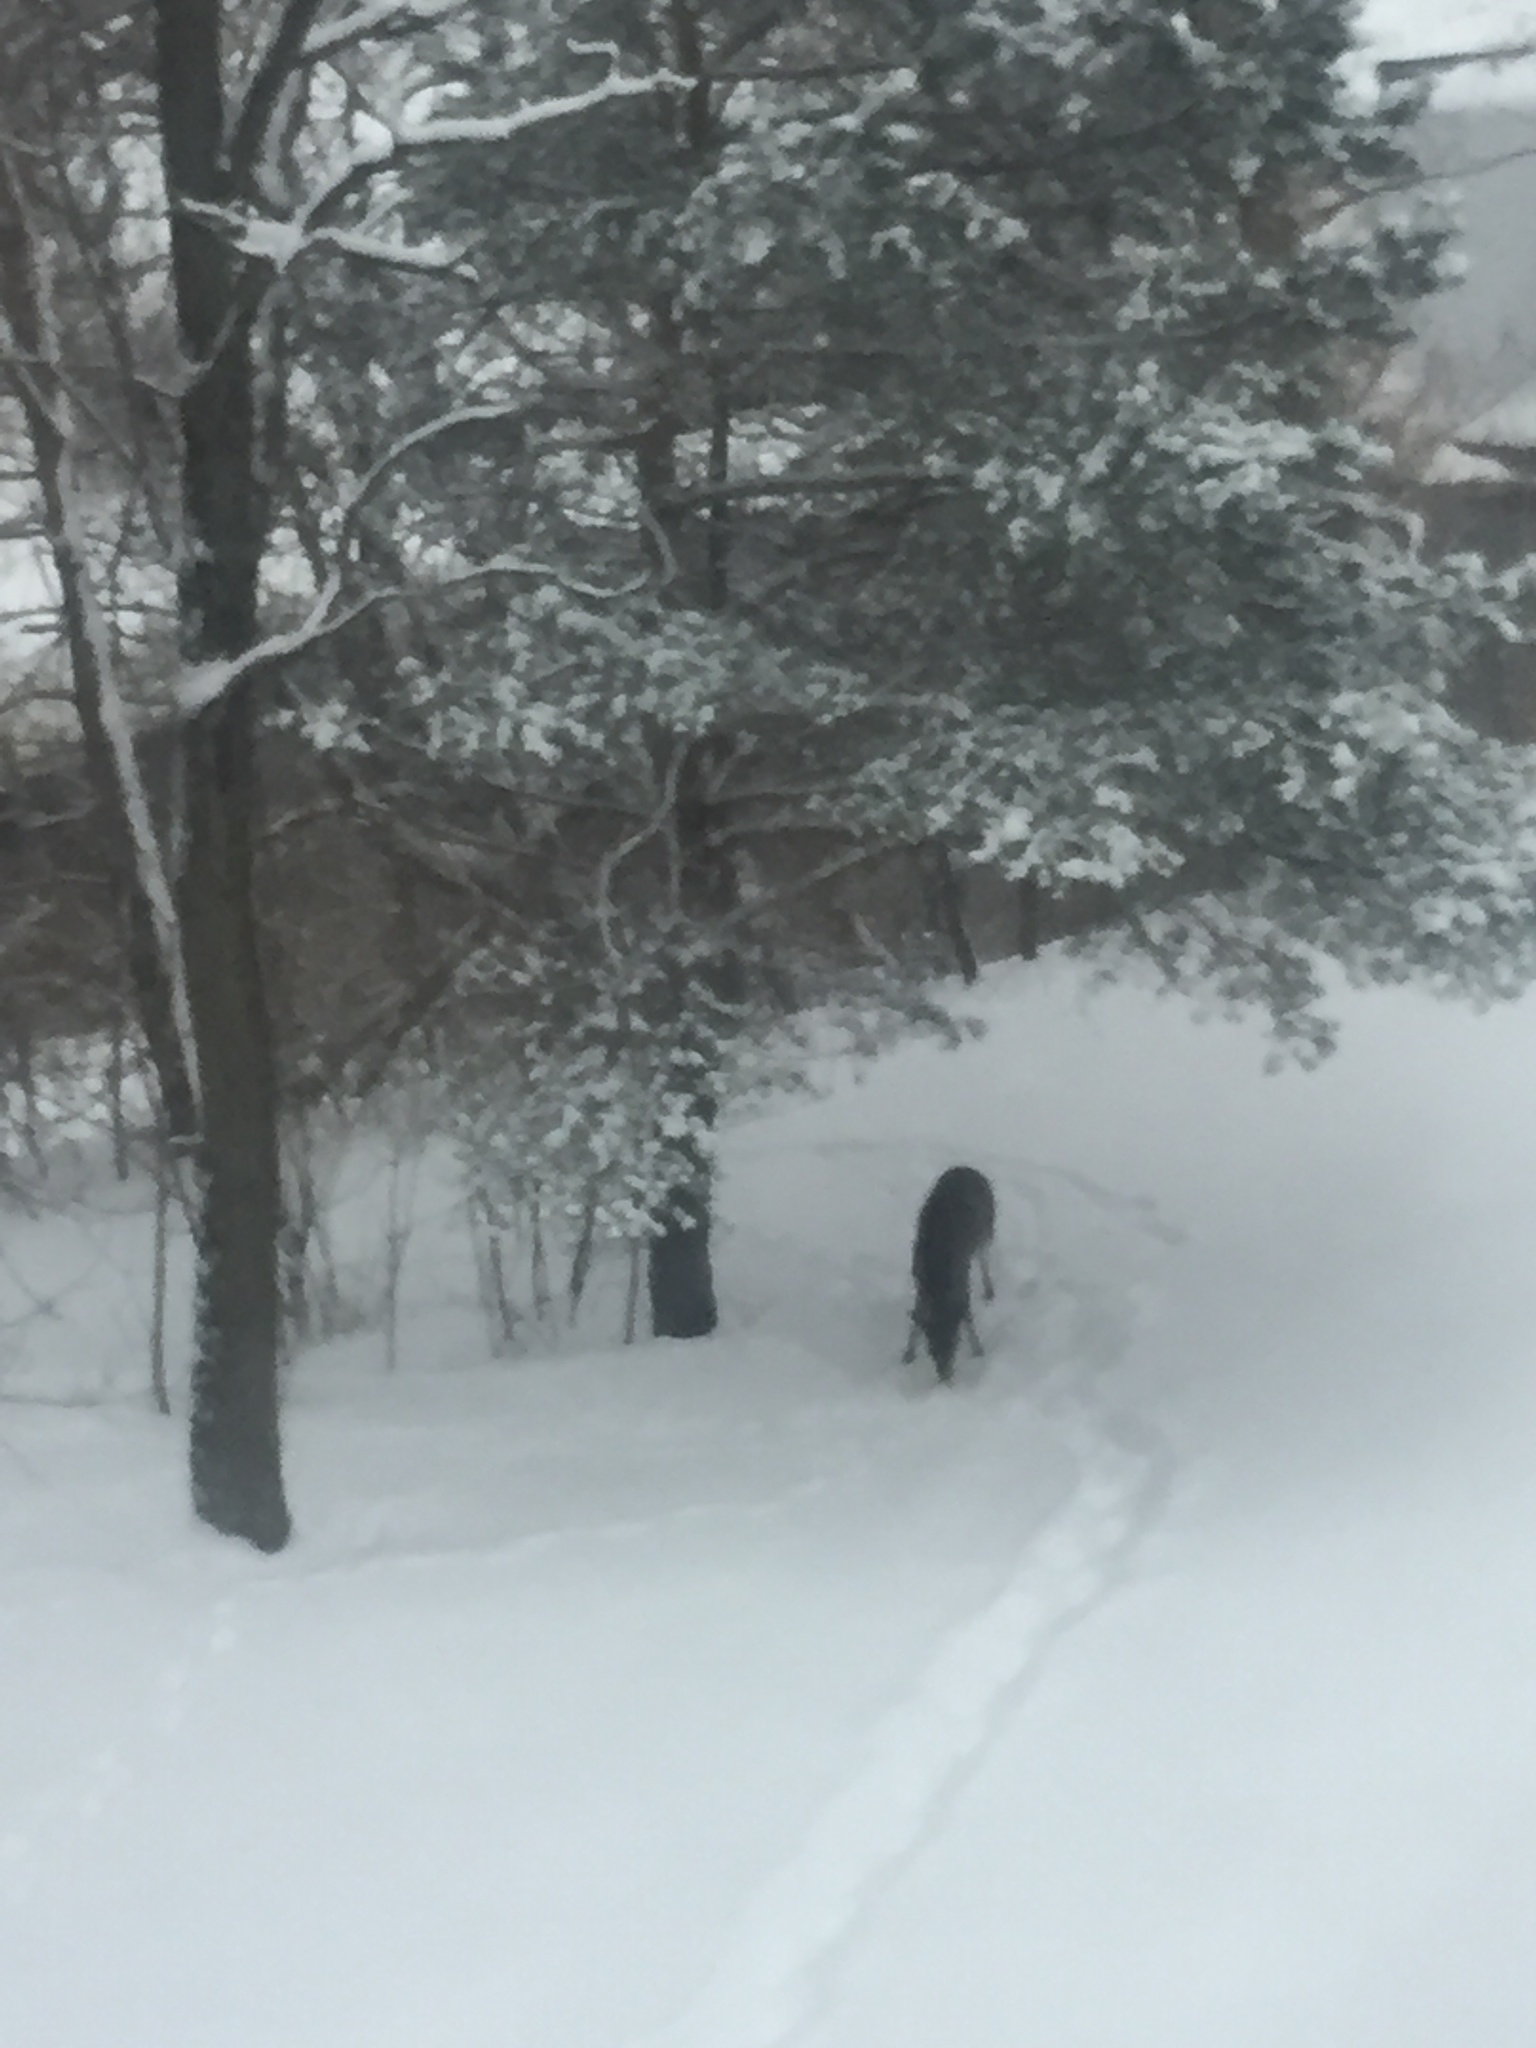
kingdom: Animalia
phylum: Chordata
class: Mammalia
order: Artiodactyla
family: Cervidae
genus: Odocoileus
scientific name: Odocoileus virginianus
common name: White-tailed deer
